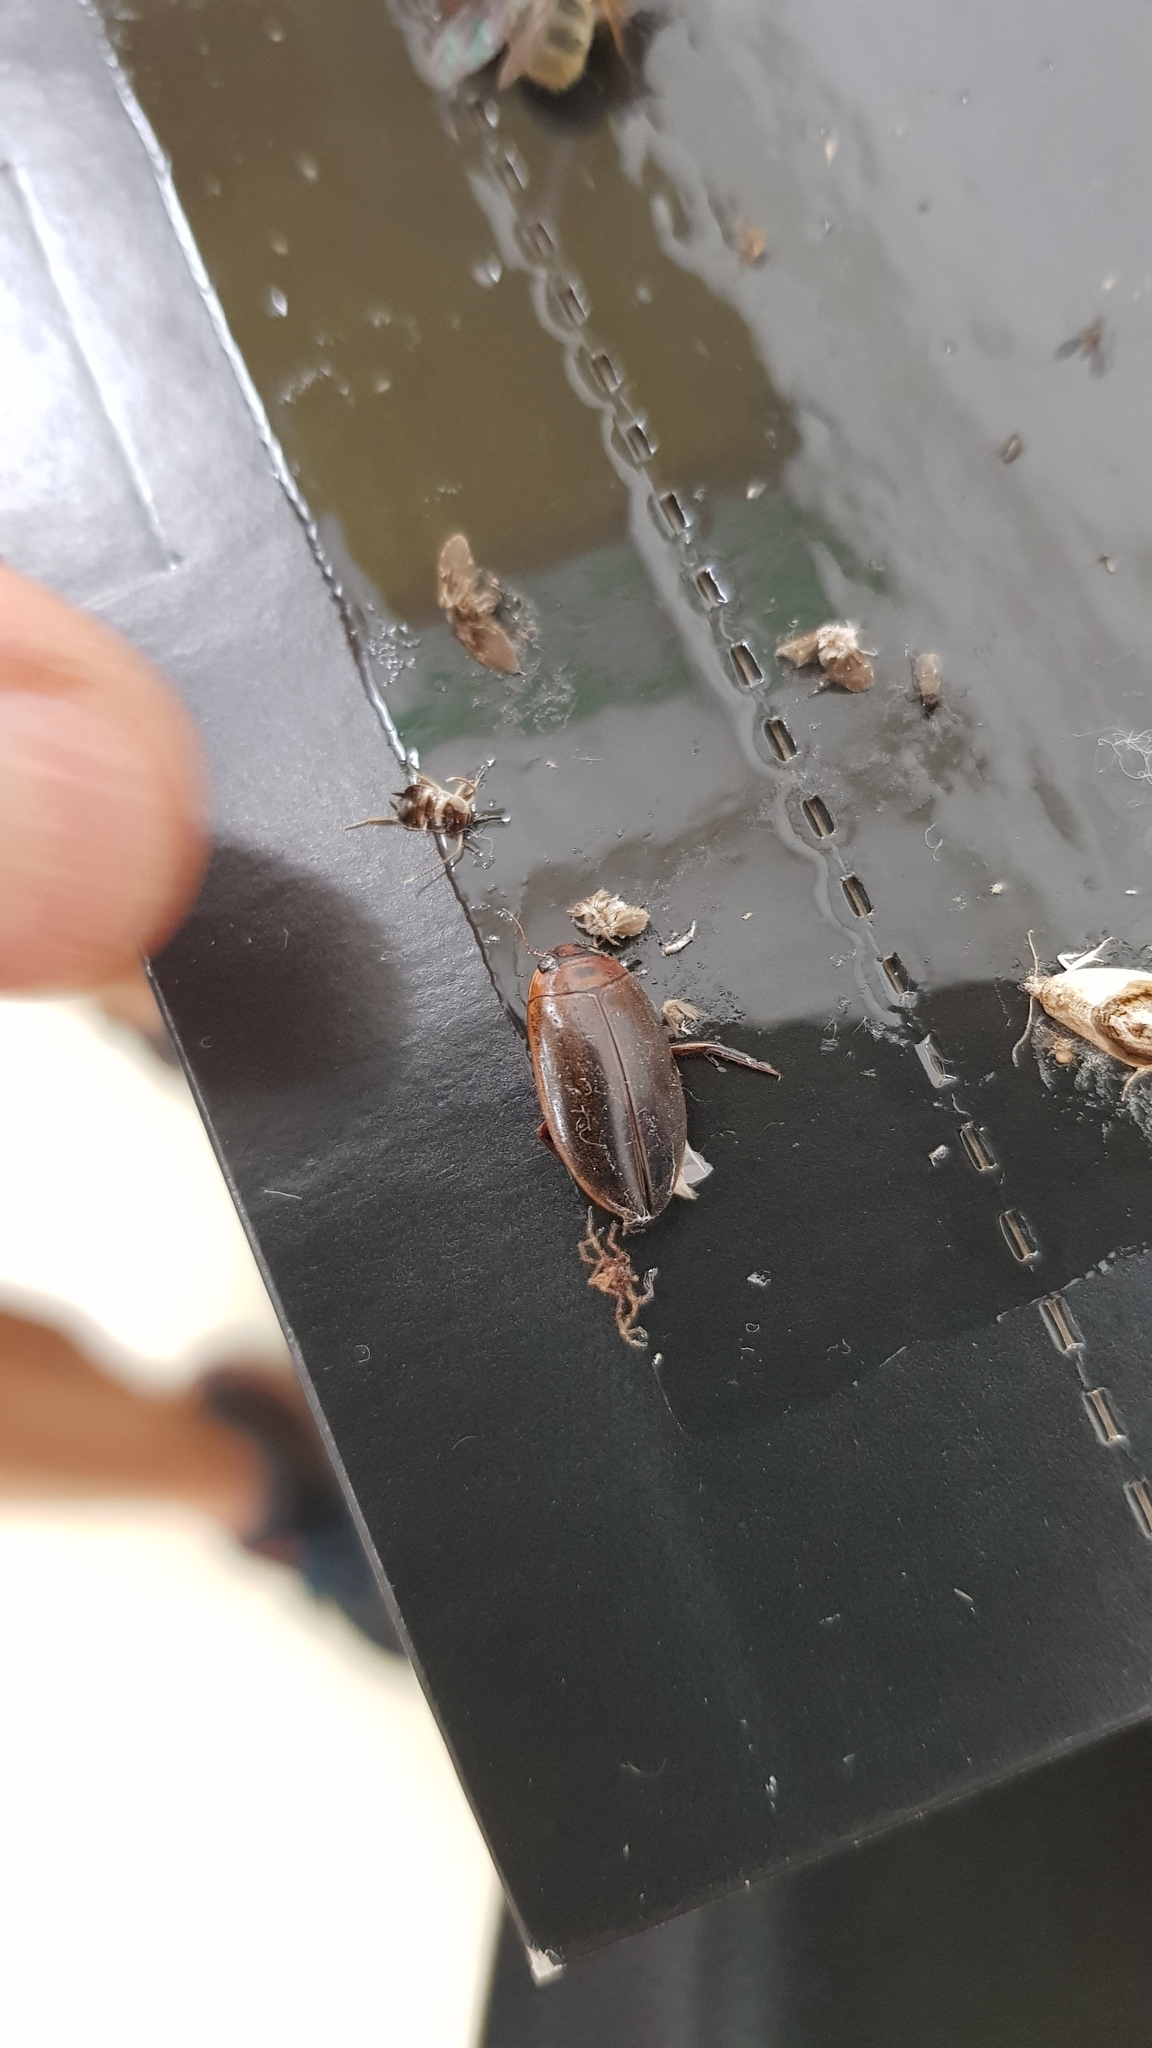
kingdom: Animalia
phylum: Arthropoda
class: Insecta
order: Coleoptera
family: Dytiscidae
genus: Rhantus
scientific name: Rhantus suturalis
